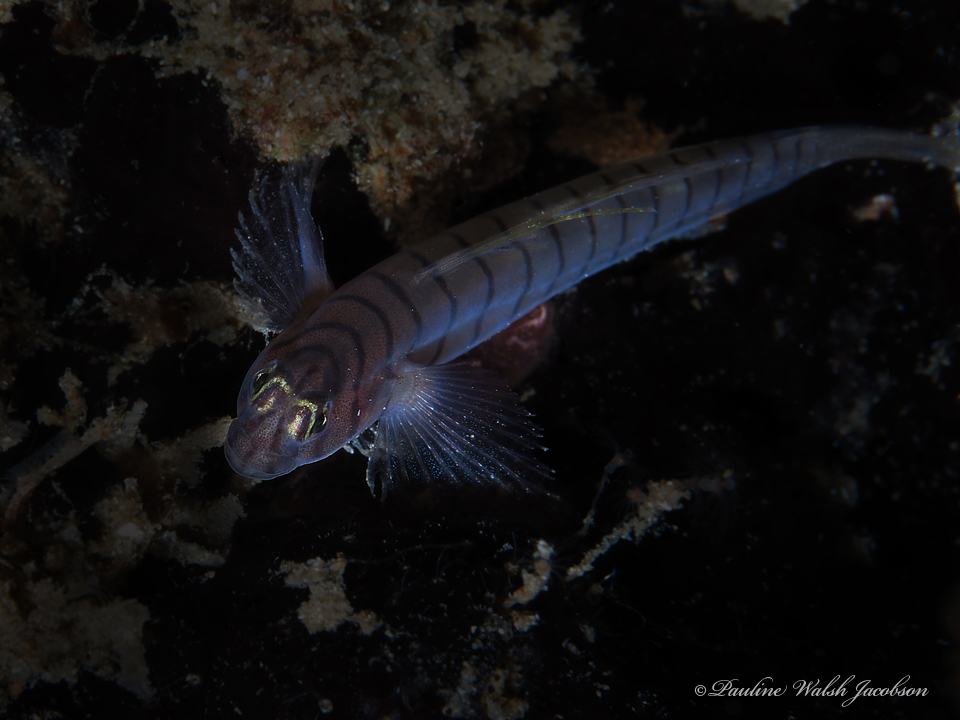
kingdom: Animalia
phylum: Chordata
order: Perciformes
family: Gobiidae
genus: Tigrigobius
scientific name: Tigrigobius macrodon
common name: Tiger goby
